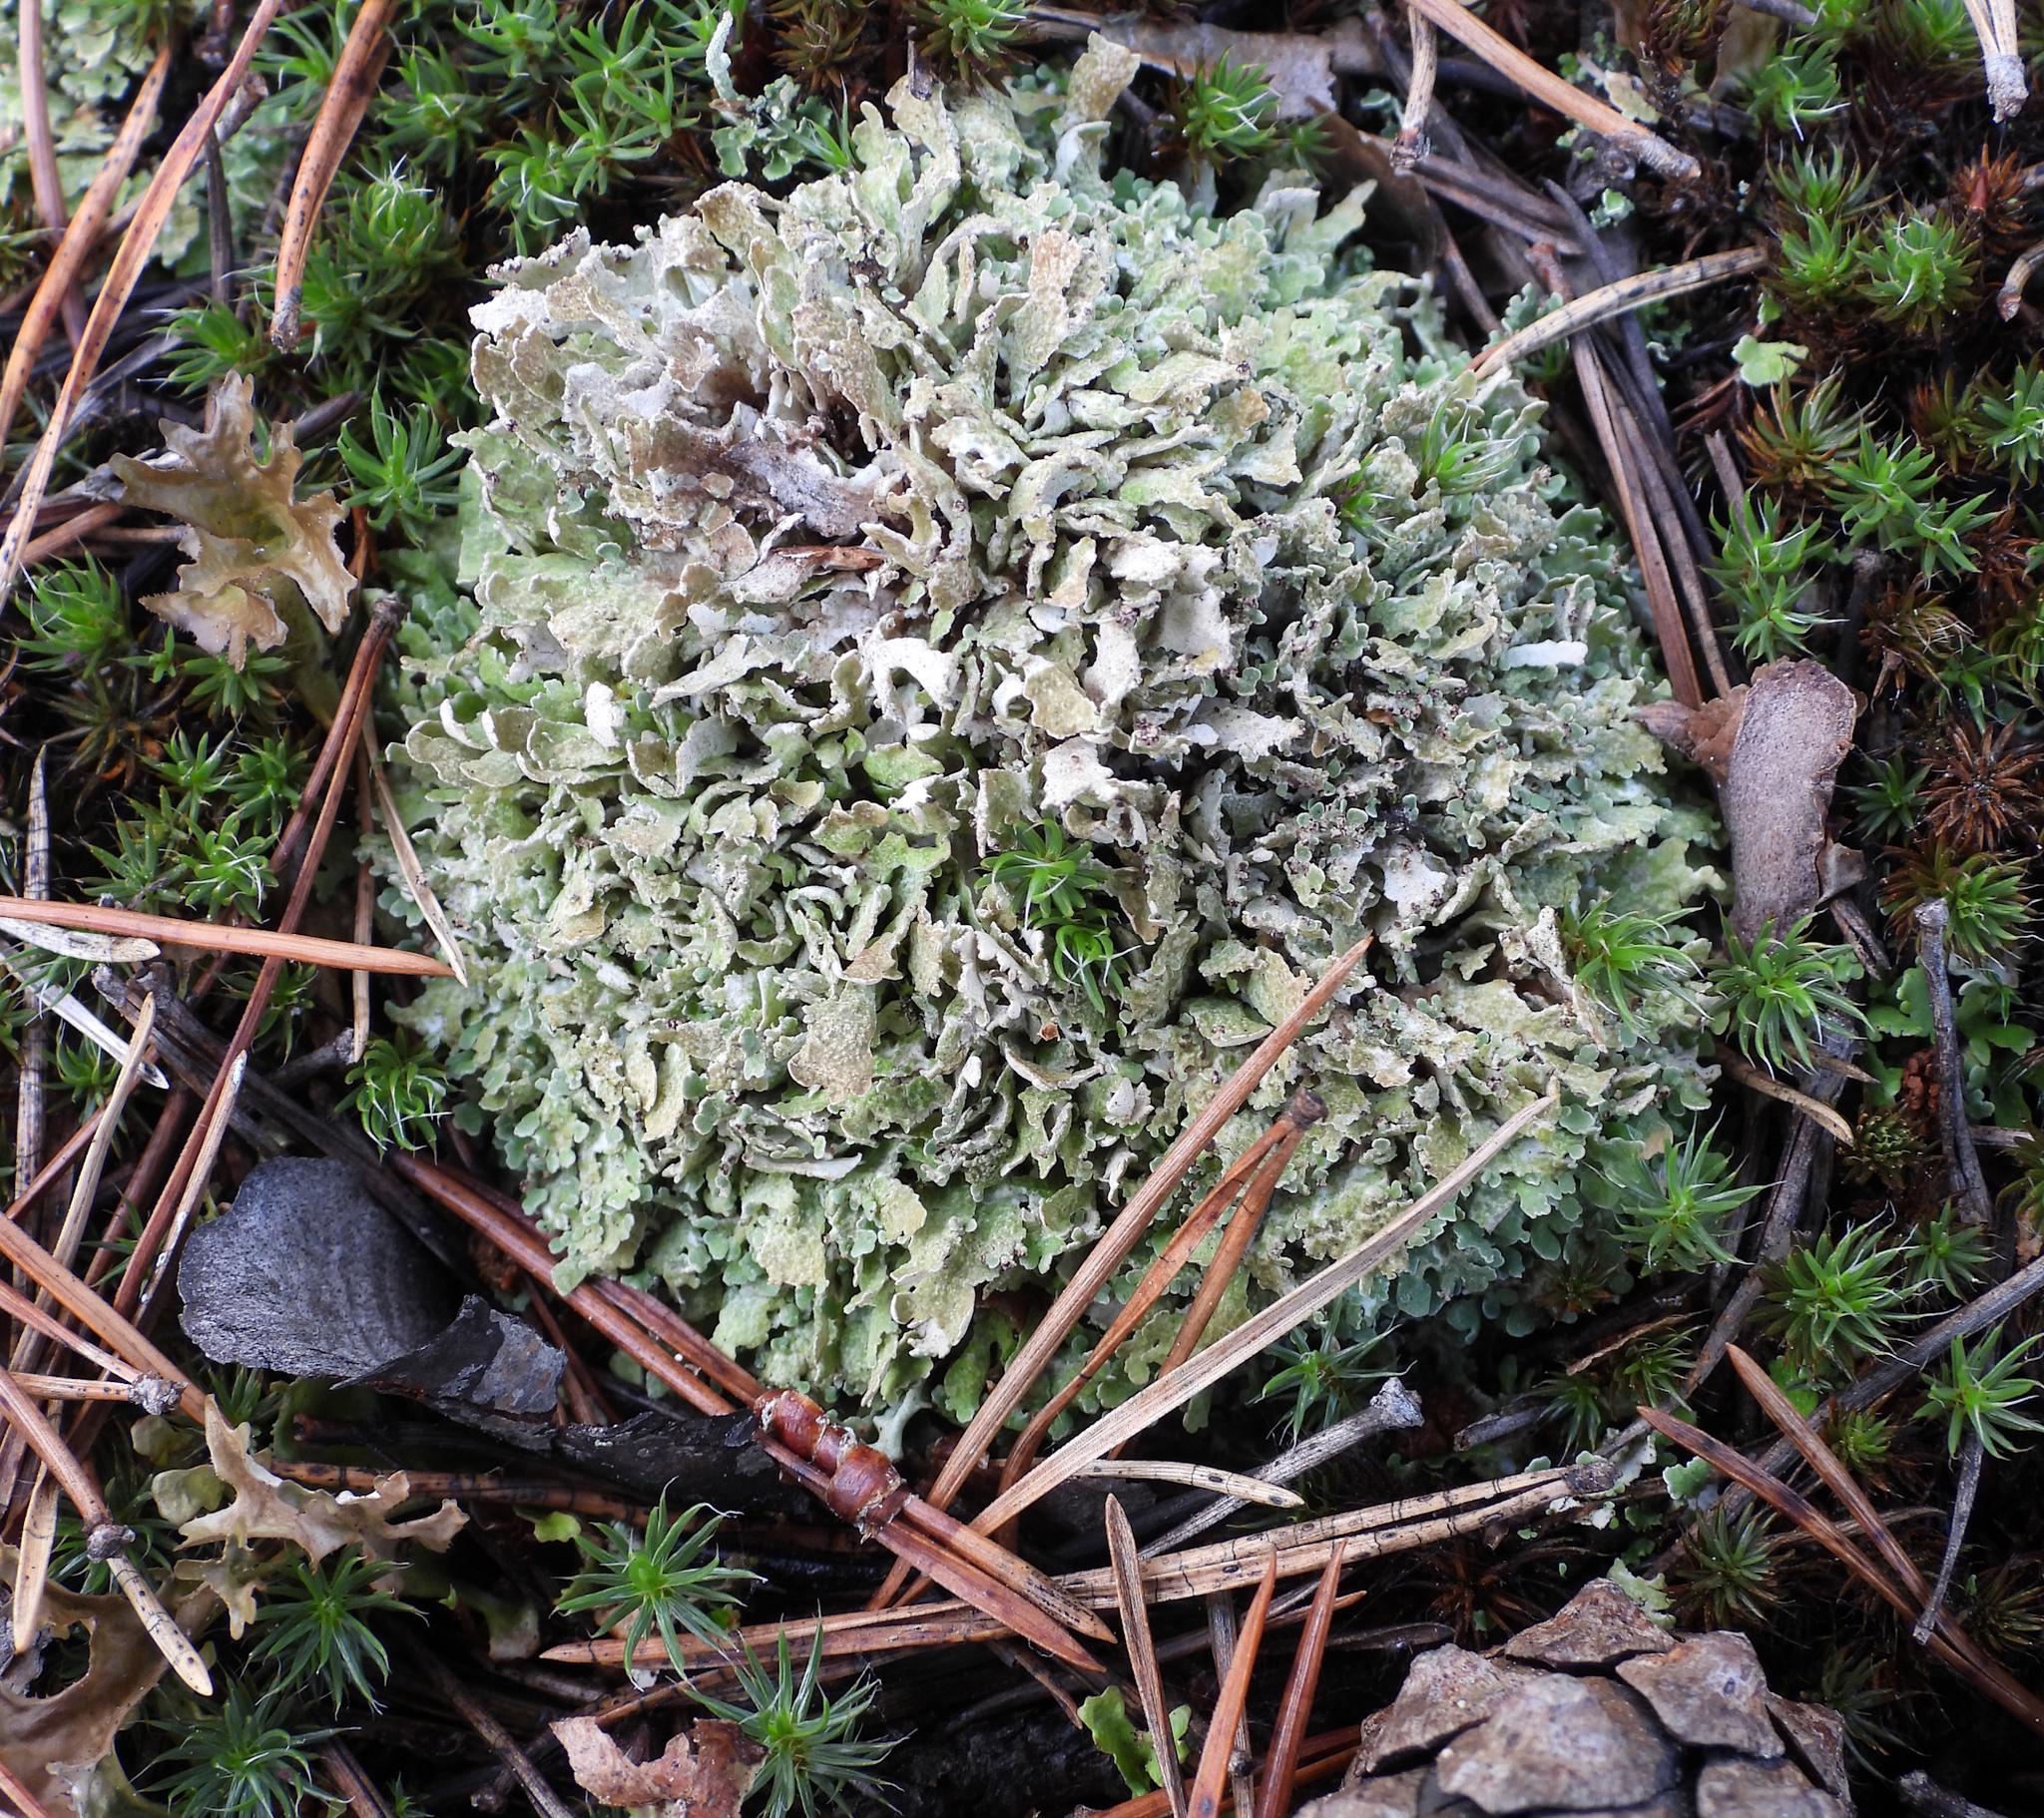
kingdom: Fungi
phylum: Ascomycota
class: Lecanoromycetes
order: Lecanorales
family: Cladoniaceae
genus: Cladonia
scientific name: Cladonia strepsilis
